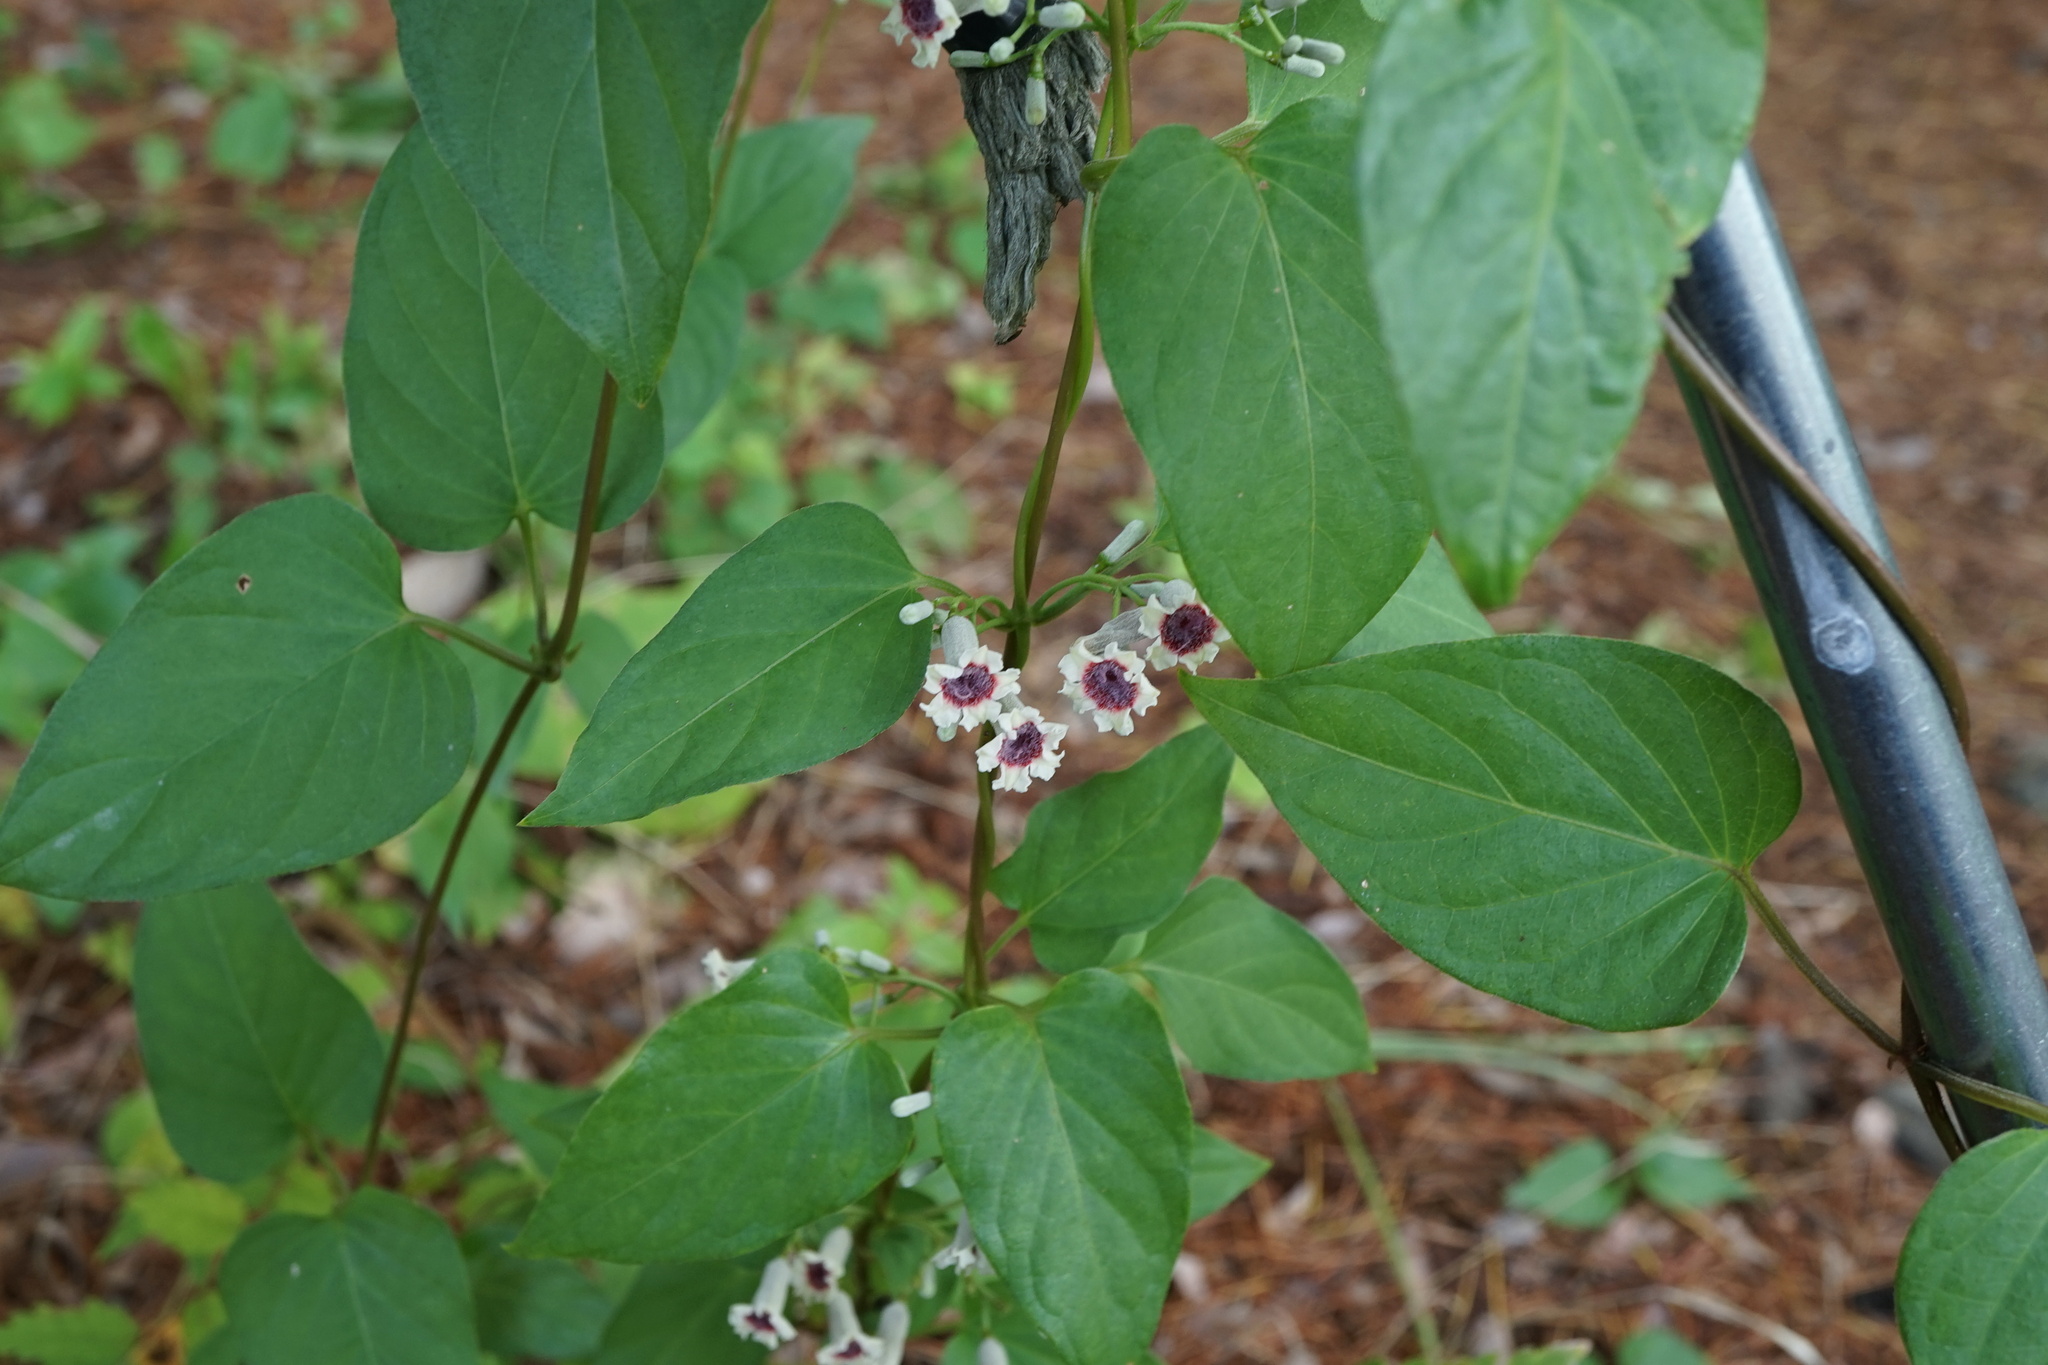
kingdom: Plantae
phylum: Tracheophyta
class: Magnoliopsida
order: Gentianales
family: Rubiaceae
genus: Paederia
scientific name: Paederia foetida
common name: Stinkvine
